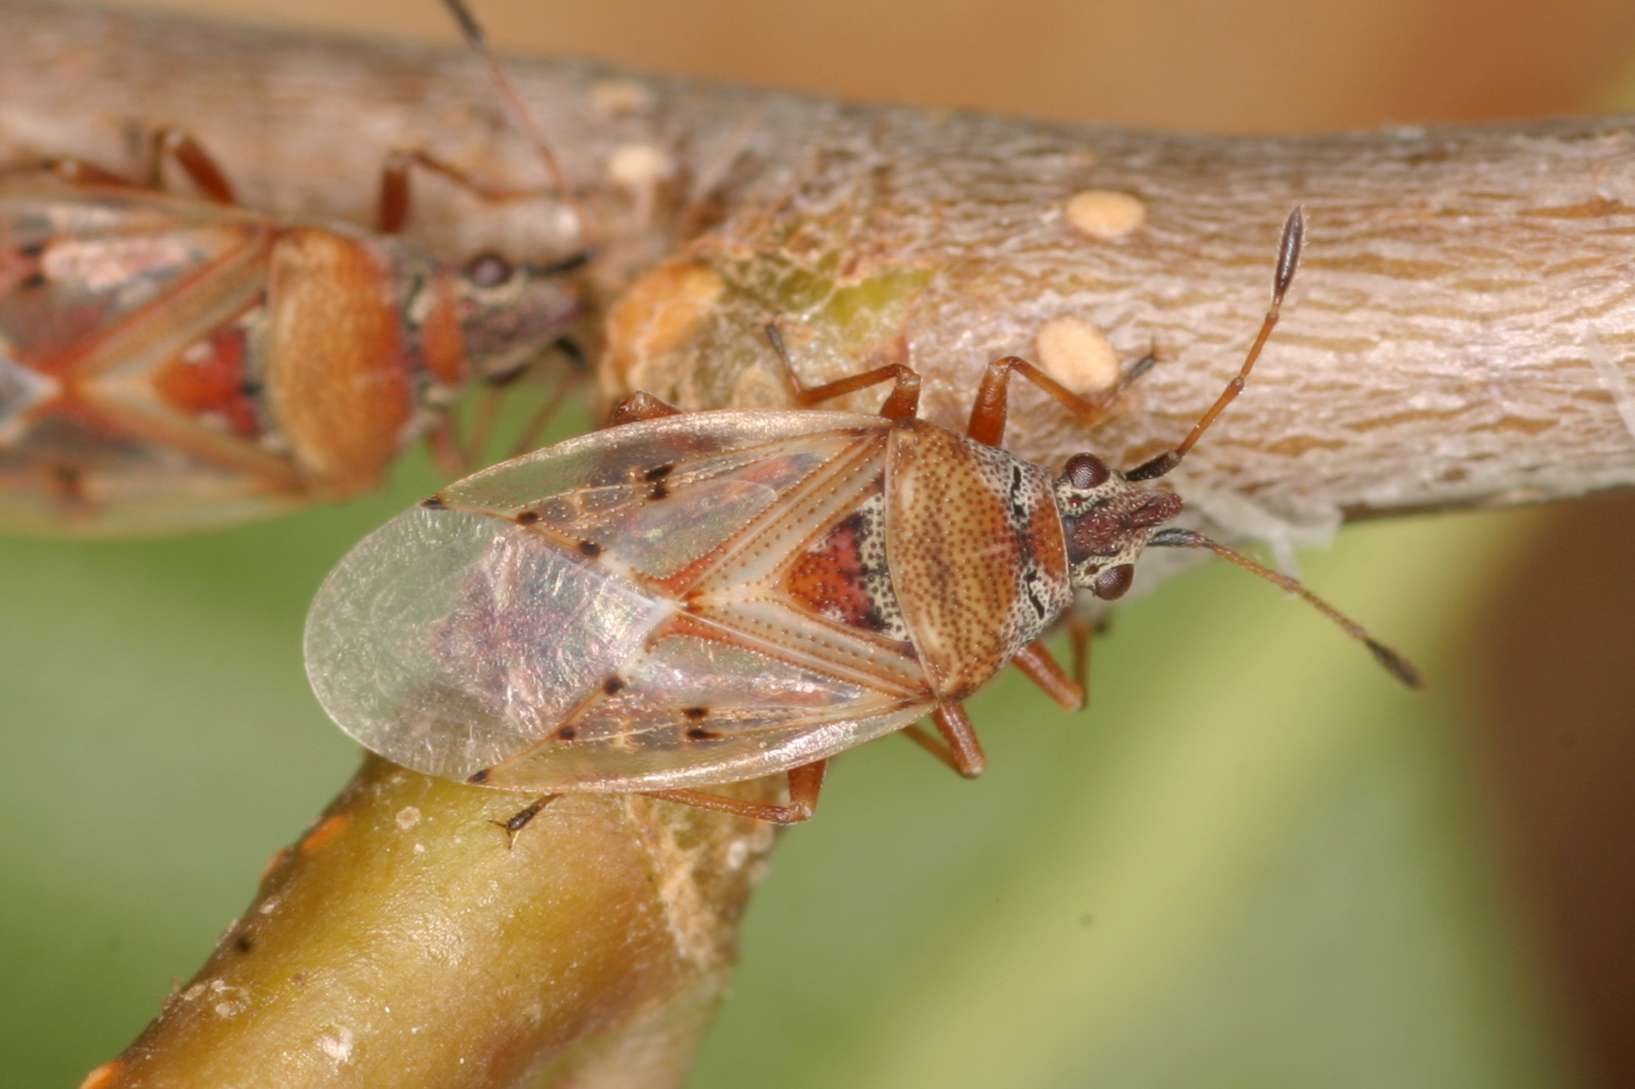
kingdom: Animalia
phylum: Arthropoda
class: Insecta
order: Hemiptera
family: Lygaeidae
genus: Kleidocerys
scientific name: Kleidocerys resedae
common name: Birch catkin bug
